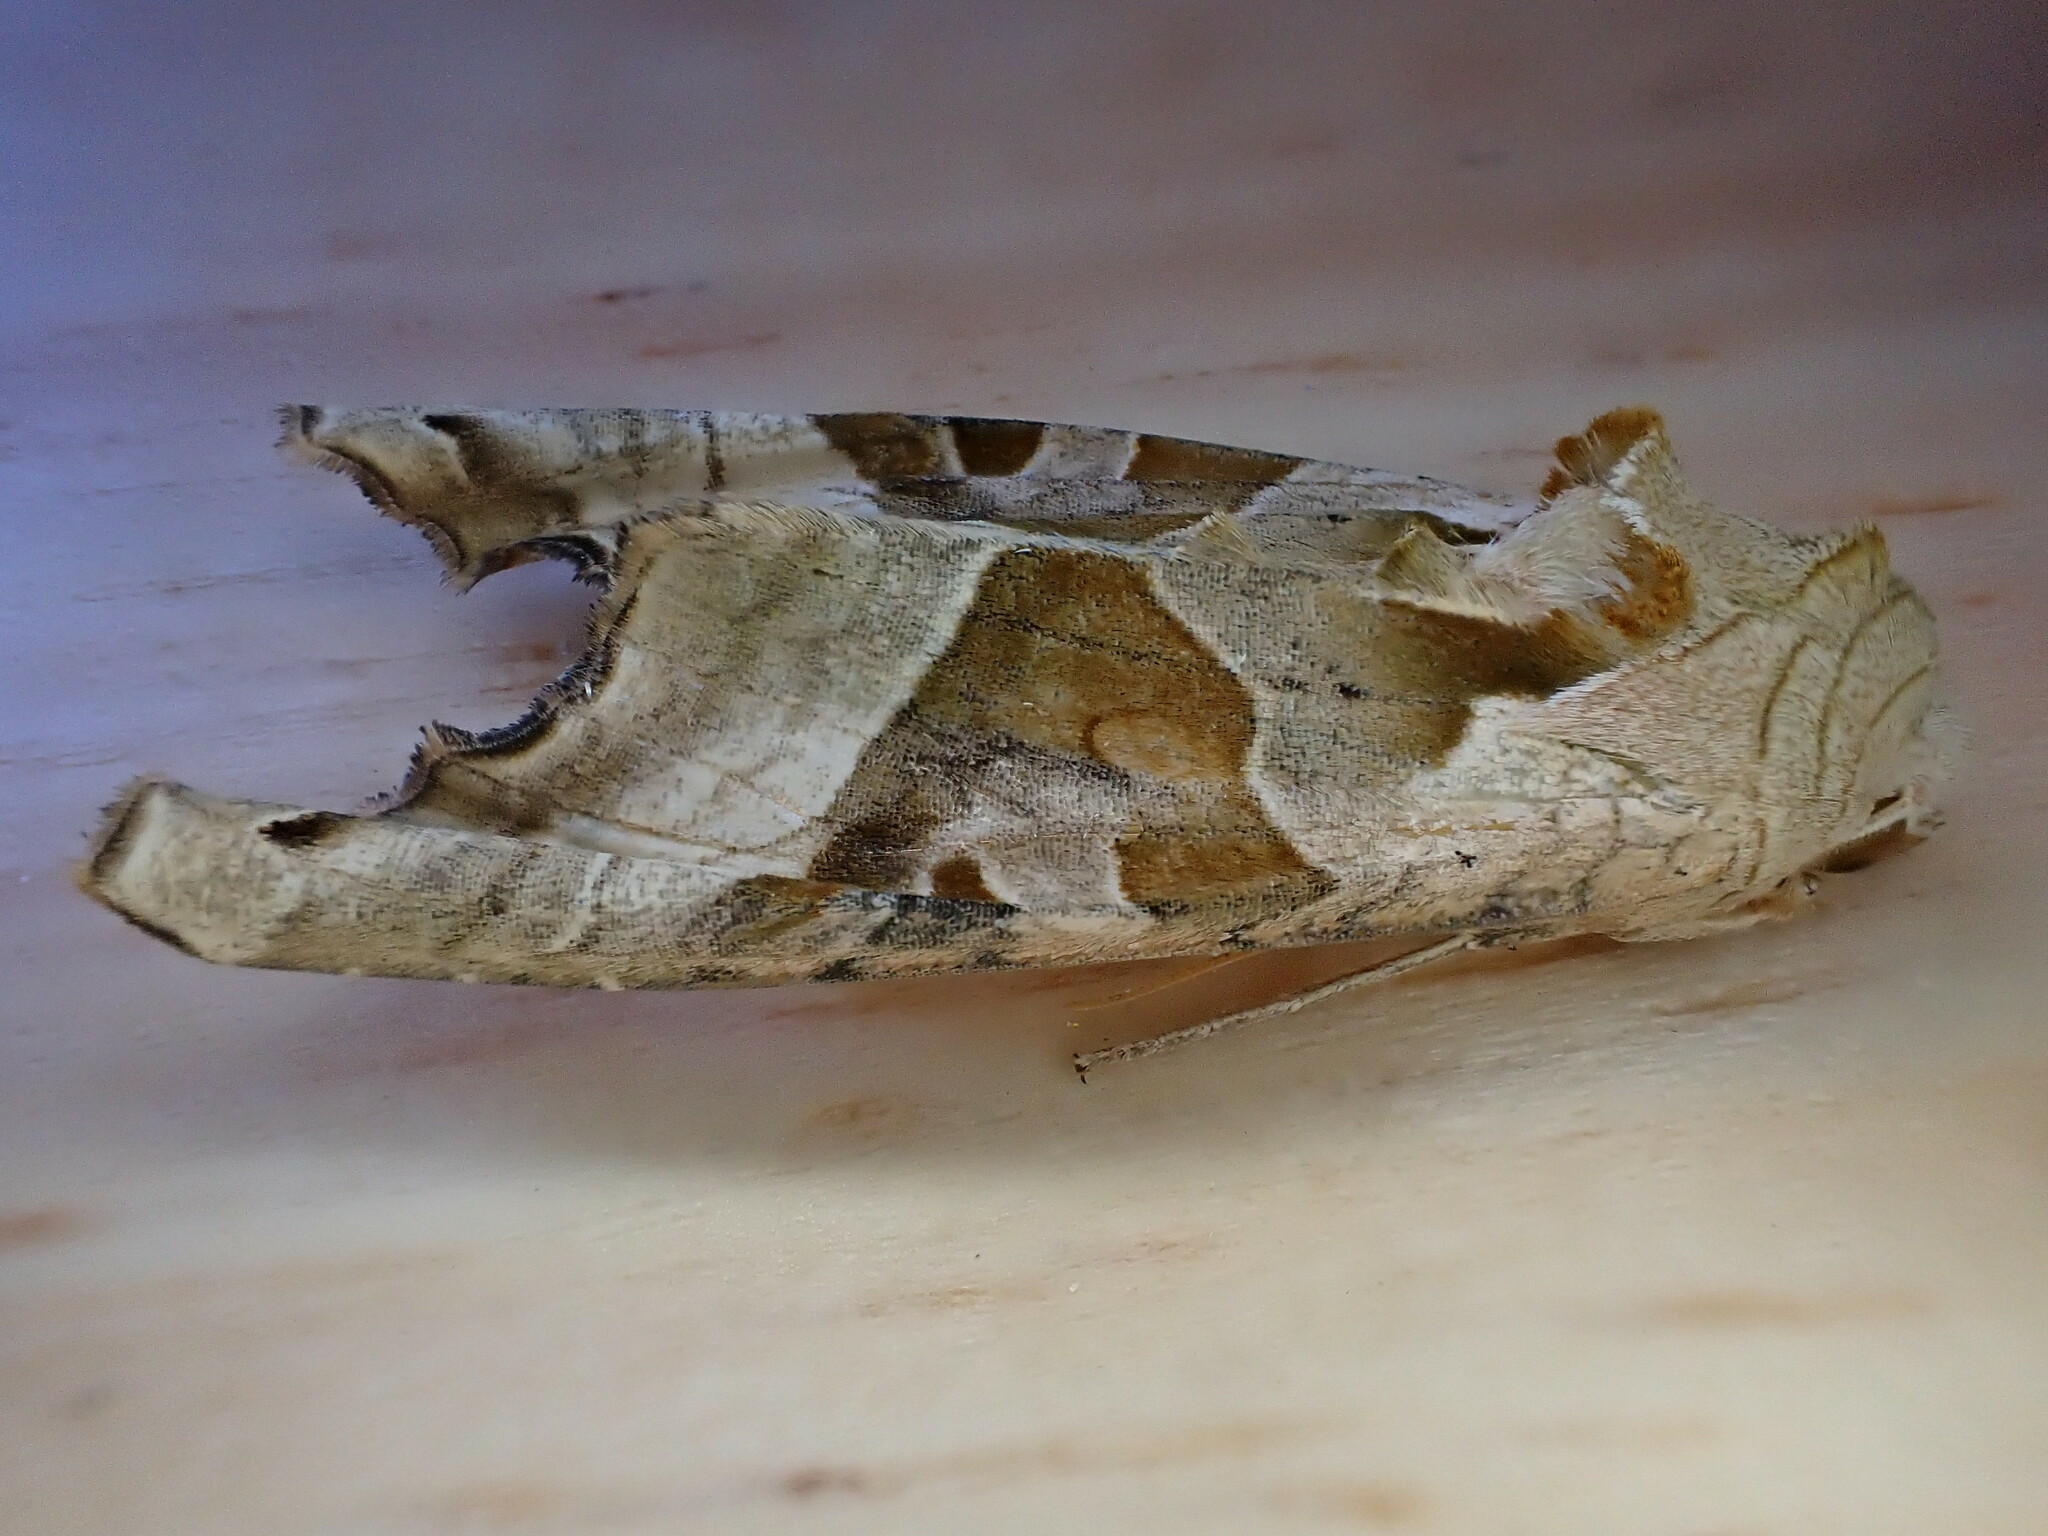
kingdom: Animalia
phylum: Arthropoda
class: Insecta
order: Lepidoptera
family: Noctuidae
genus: Phlogophora
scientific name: Phlogophora meticulosa
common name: Angle shades
